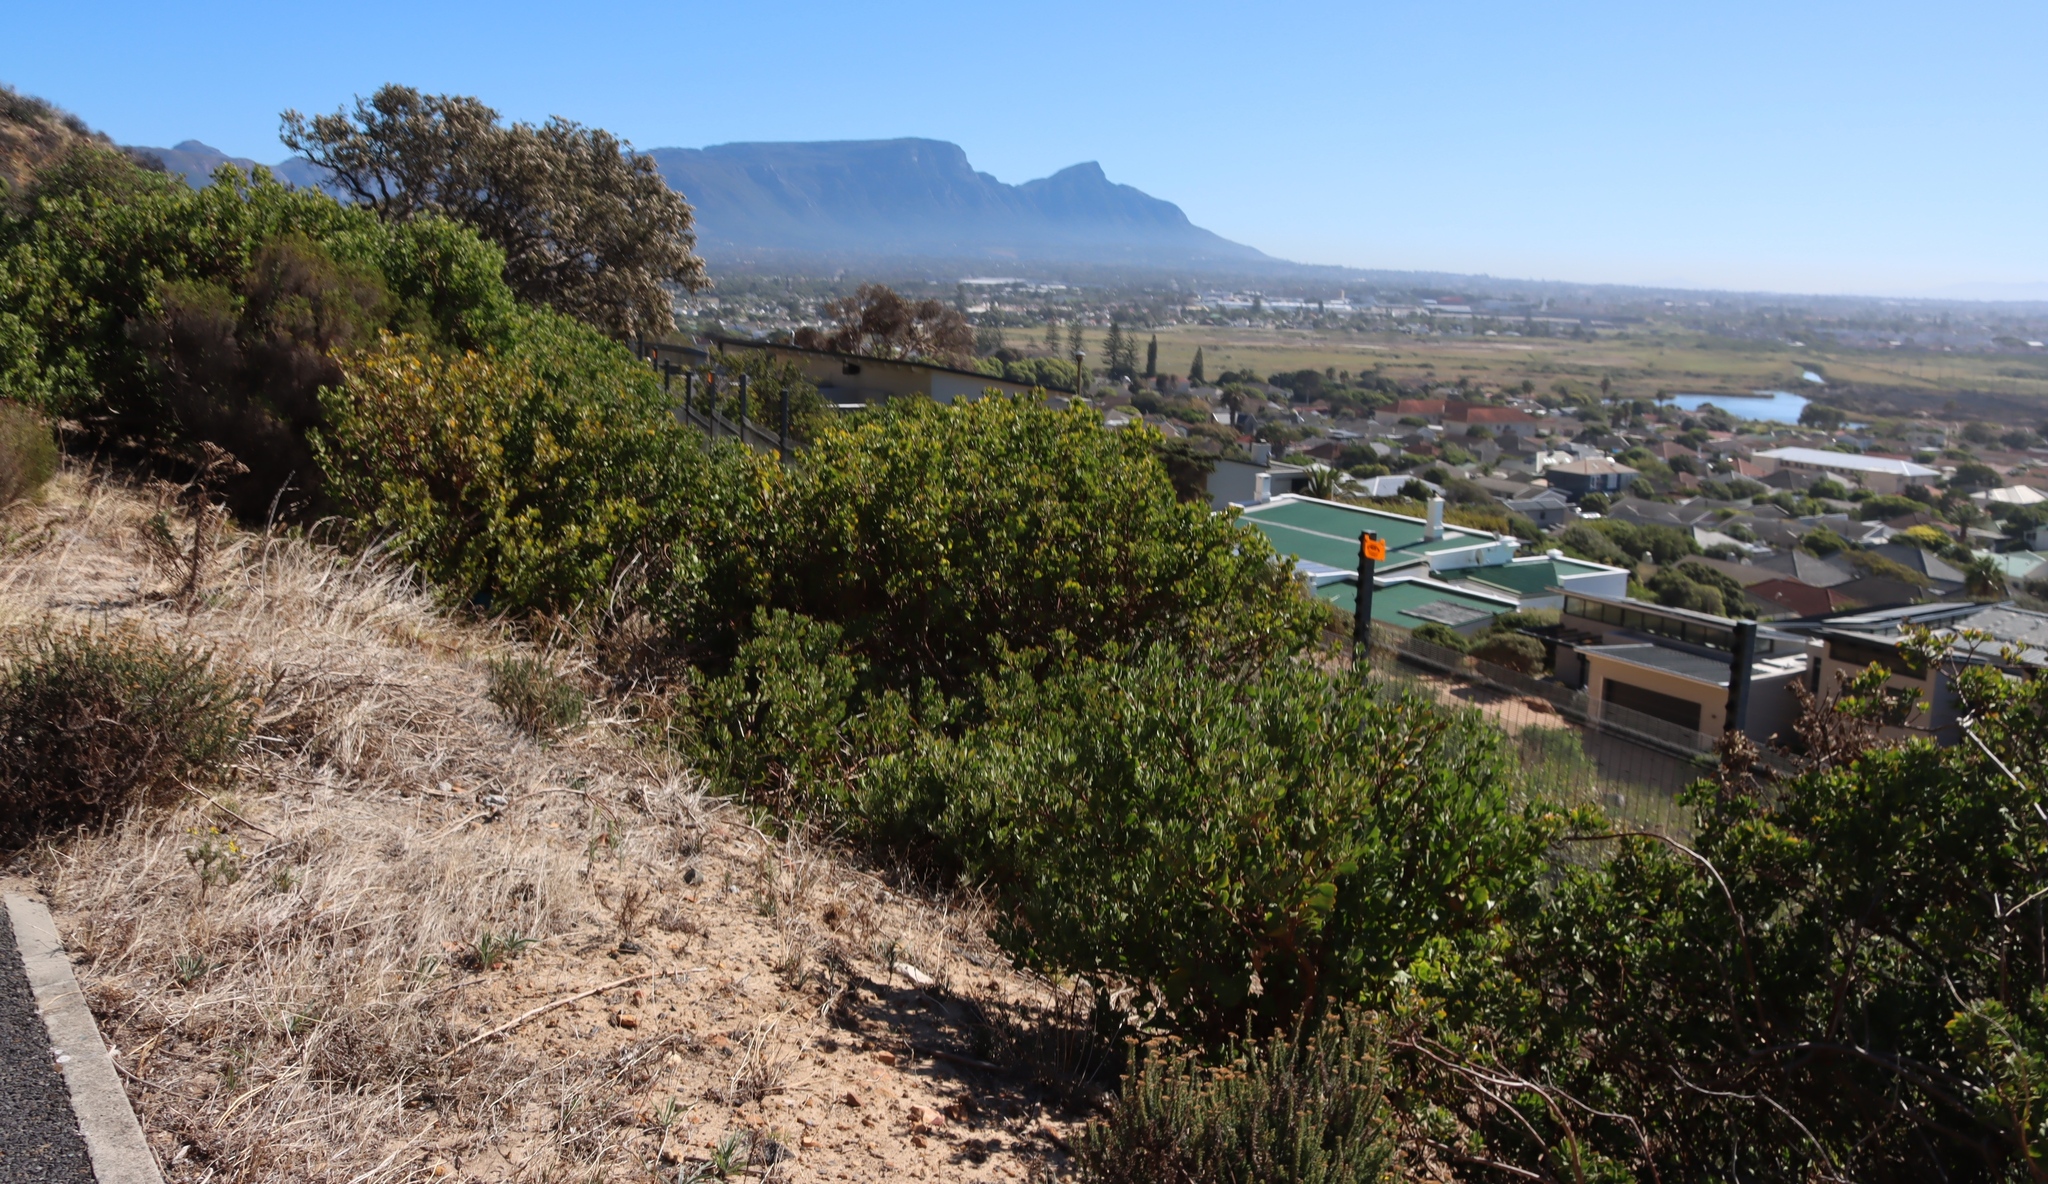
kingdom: Plantae
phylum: Tracheophyta
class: Magnoliopsida
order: Asterales
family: Asteraceae
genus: Osteospermum
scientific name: Osteospermum moniliferum
